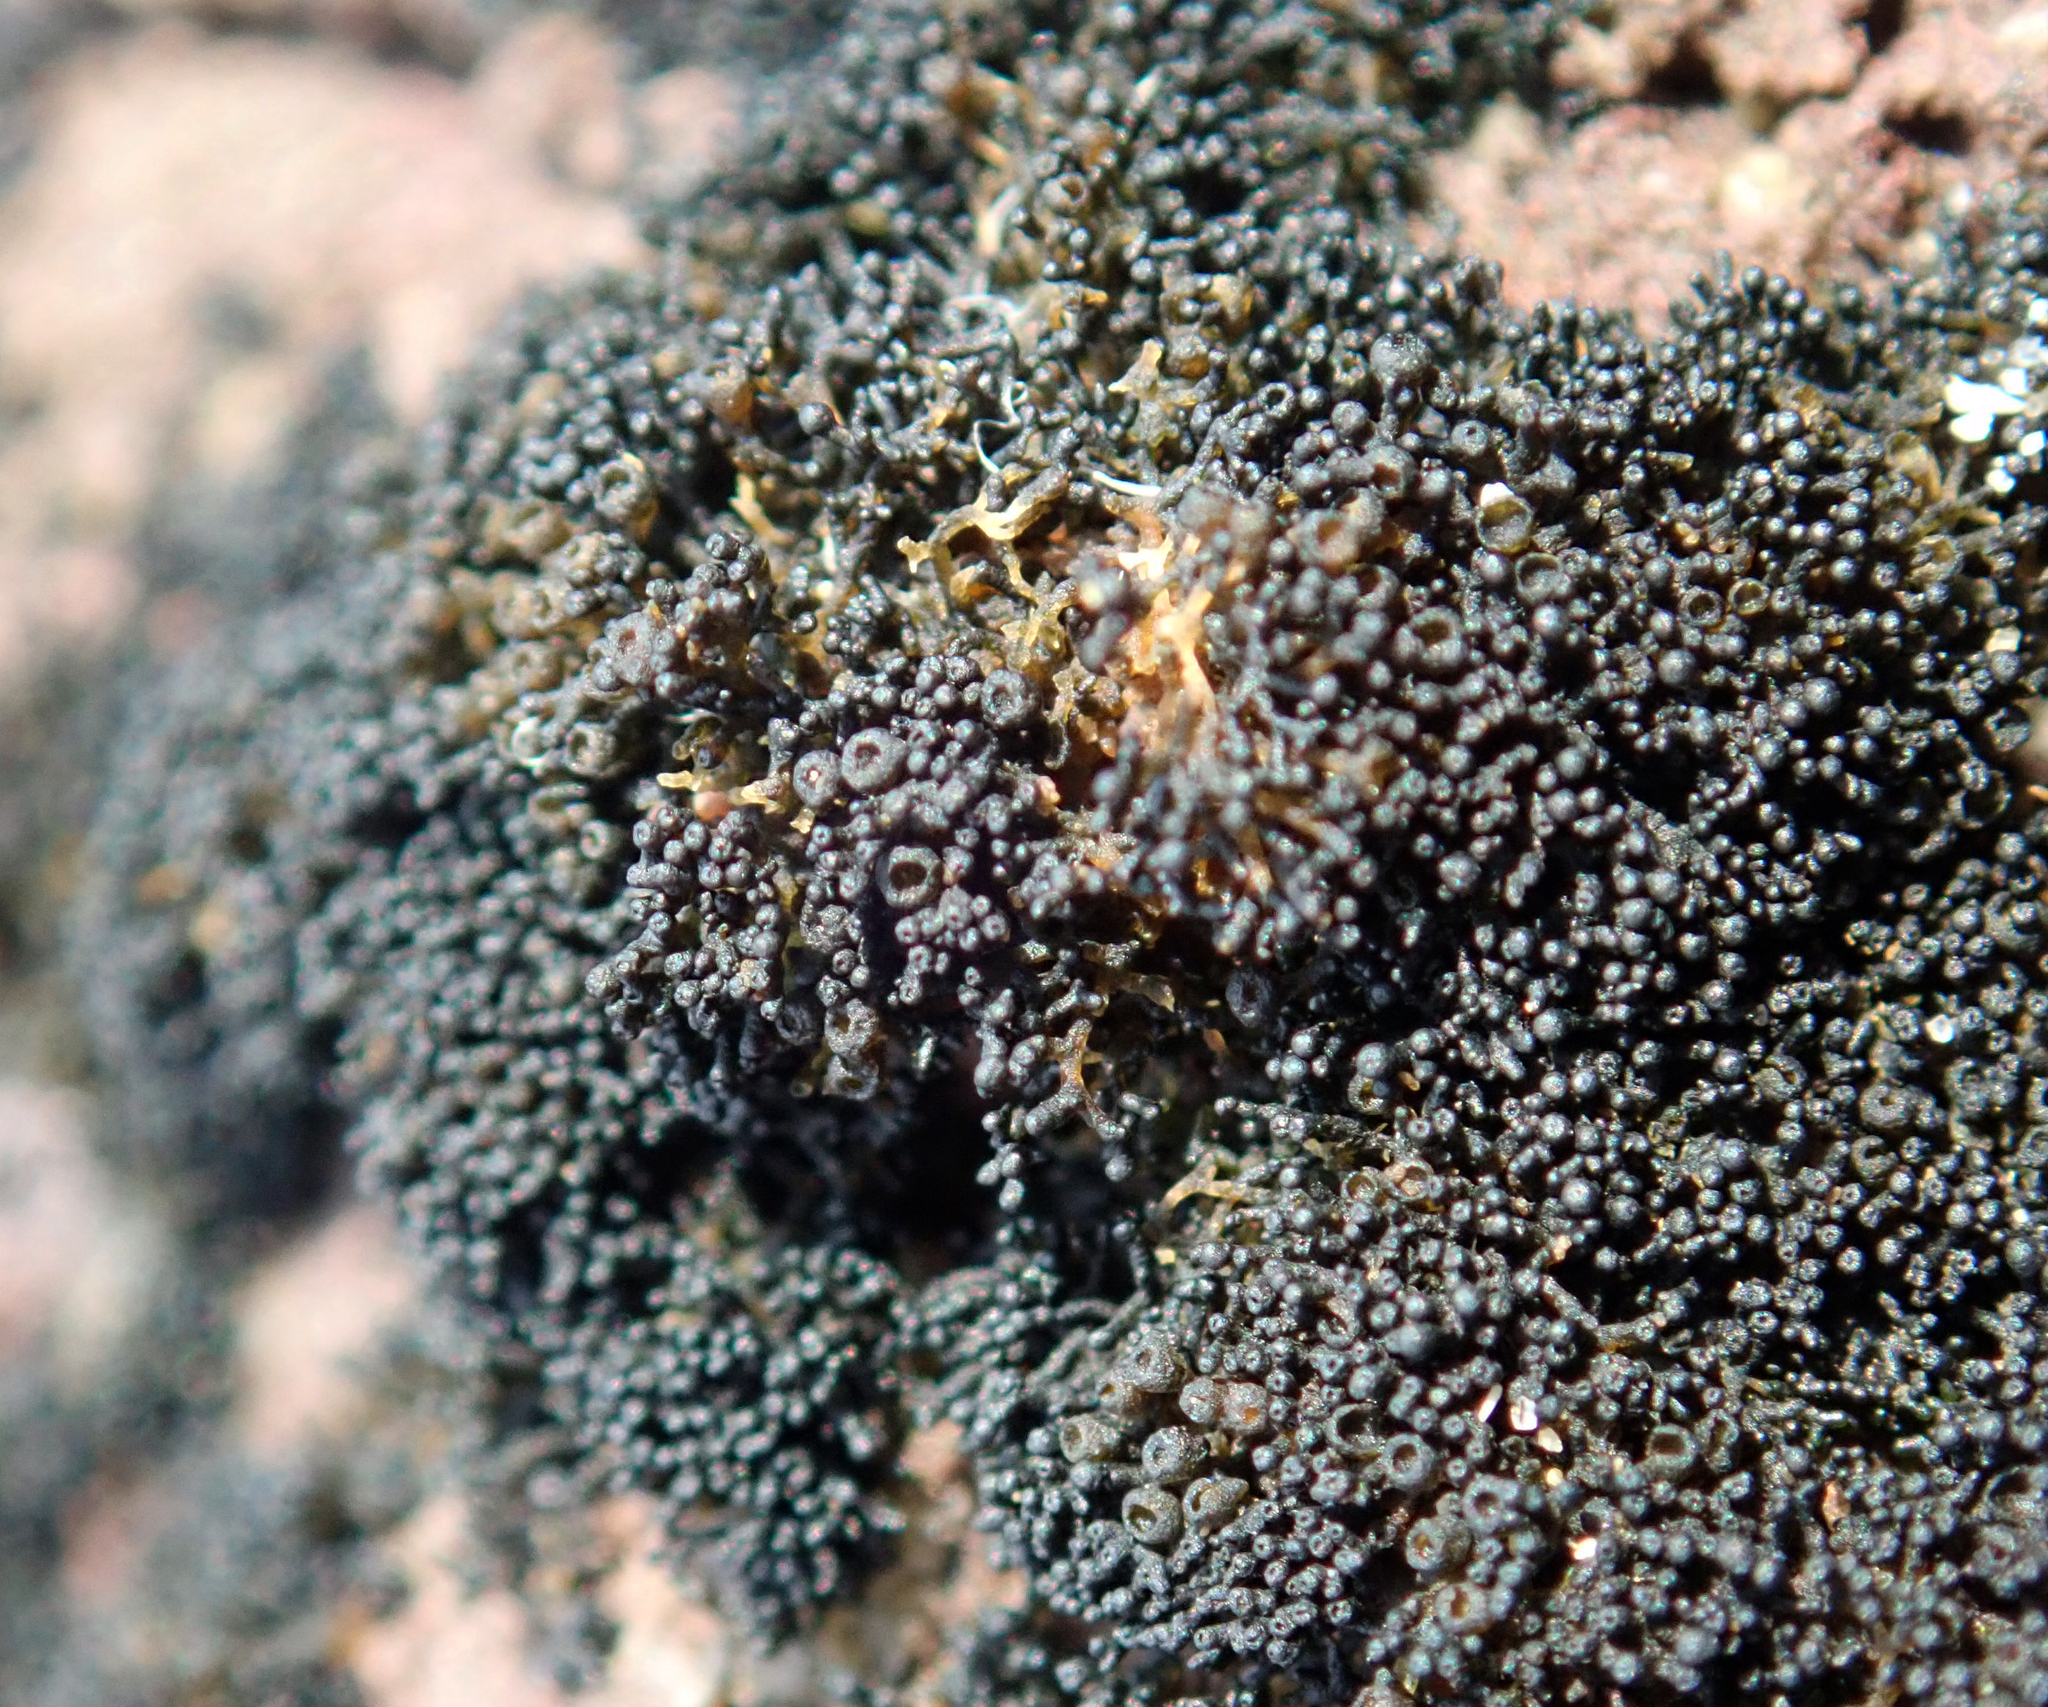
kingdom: Fungi
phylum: Ascomycota
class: Lichinomycetes
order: Lichinales
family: Lichinaceae
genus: Lichina
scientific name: Lichina intermedia
